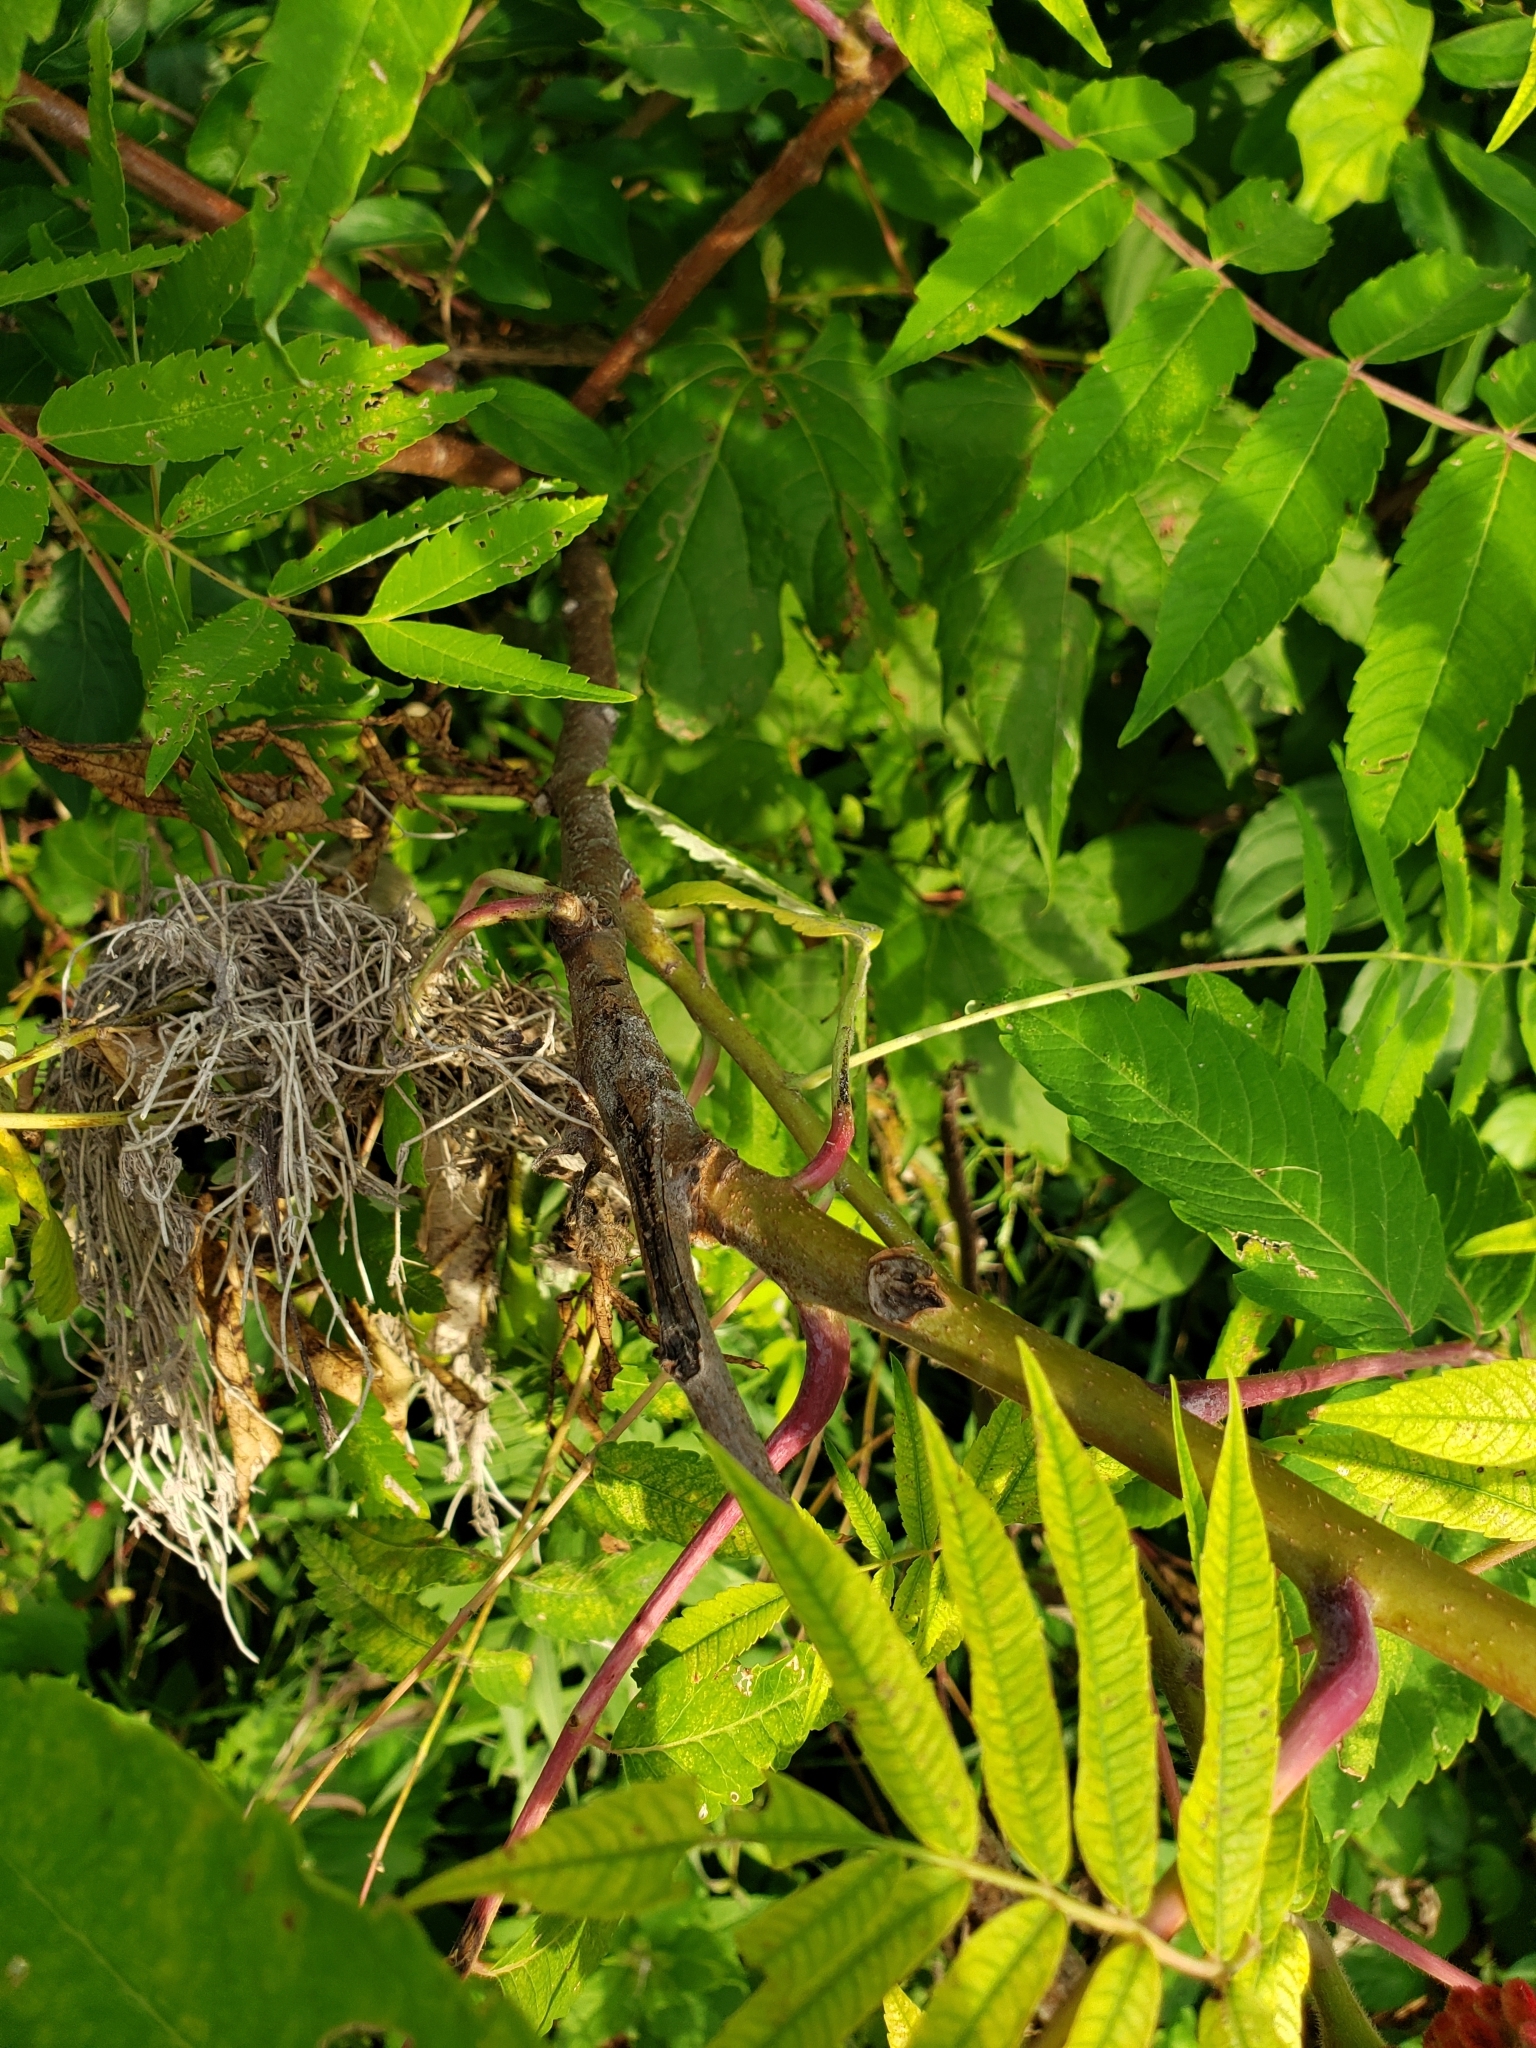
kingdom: Plantae
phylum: Tracheophyta
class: Magnoliopsida
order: Sapindales
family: Anacardiaceae
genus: Rhus
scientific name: Rhus glabra
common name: Scarlet sumac
